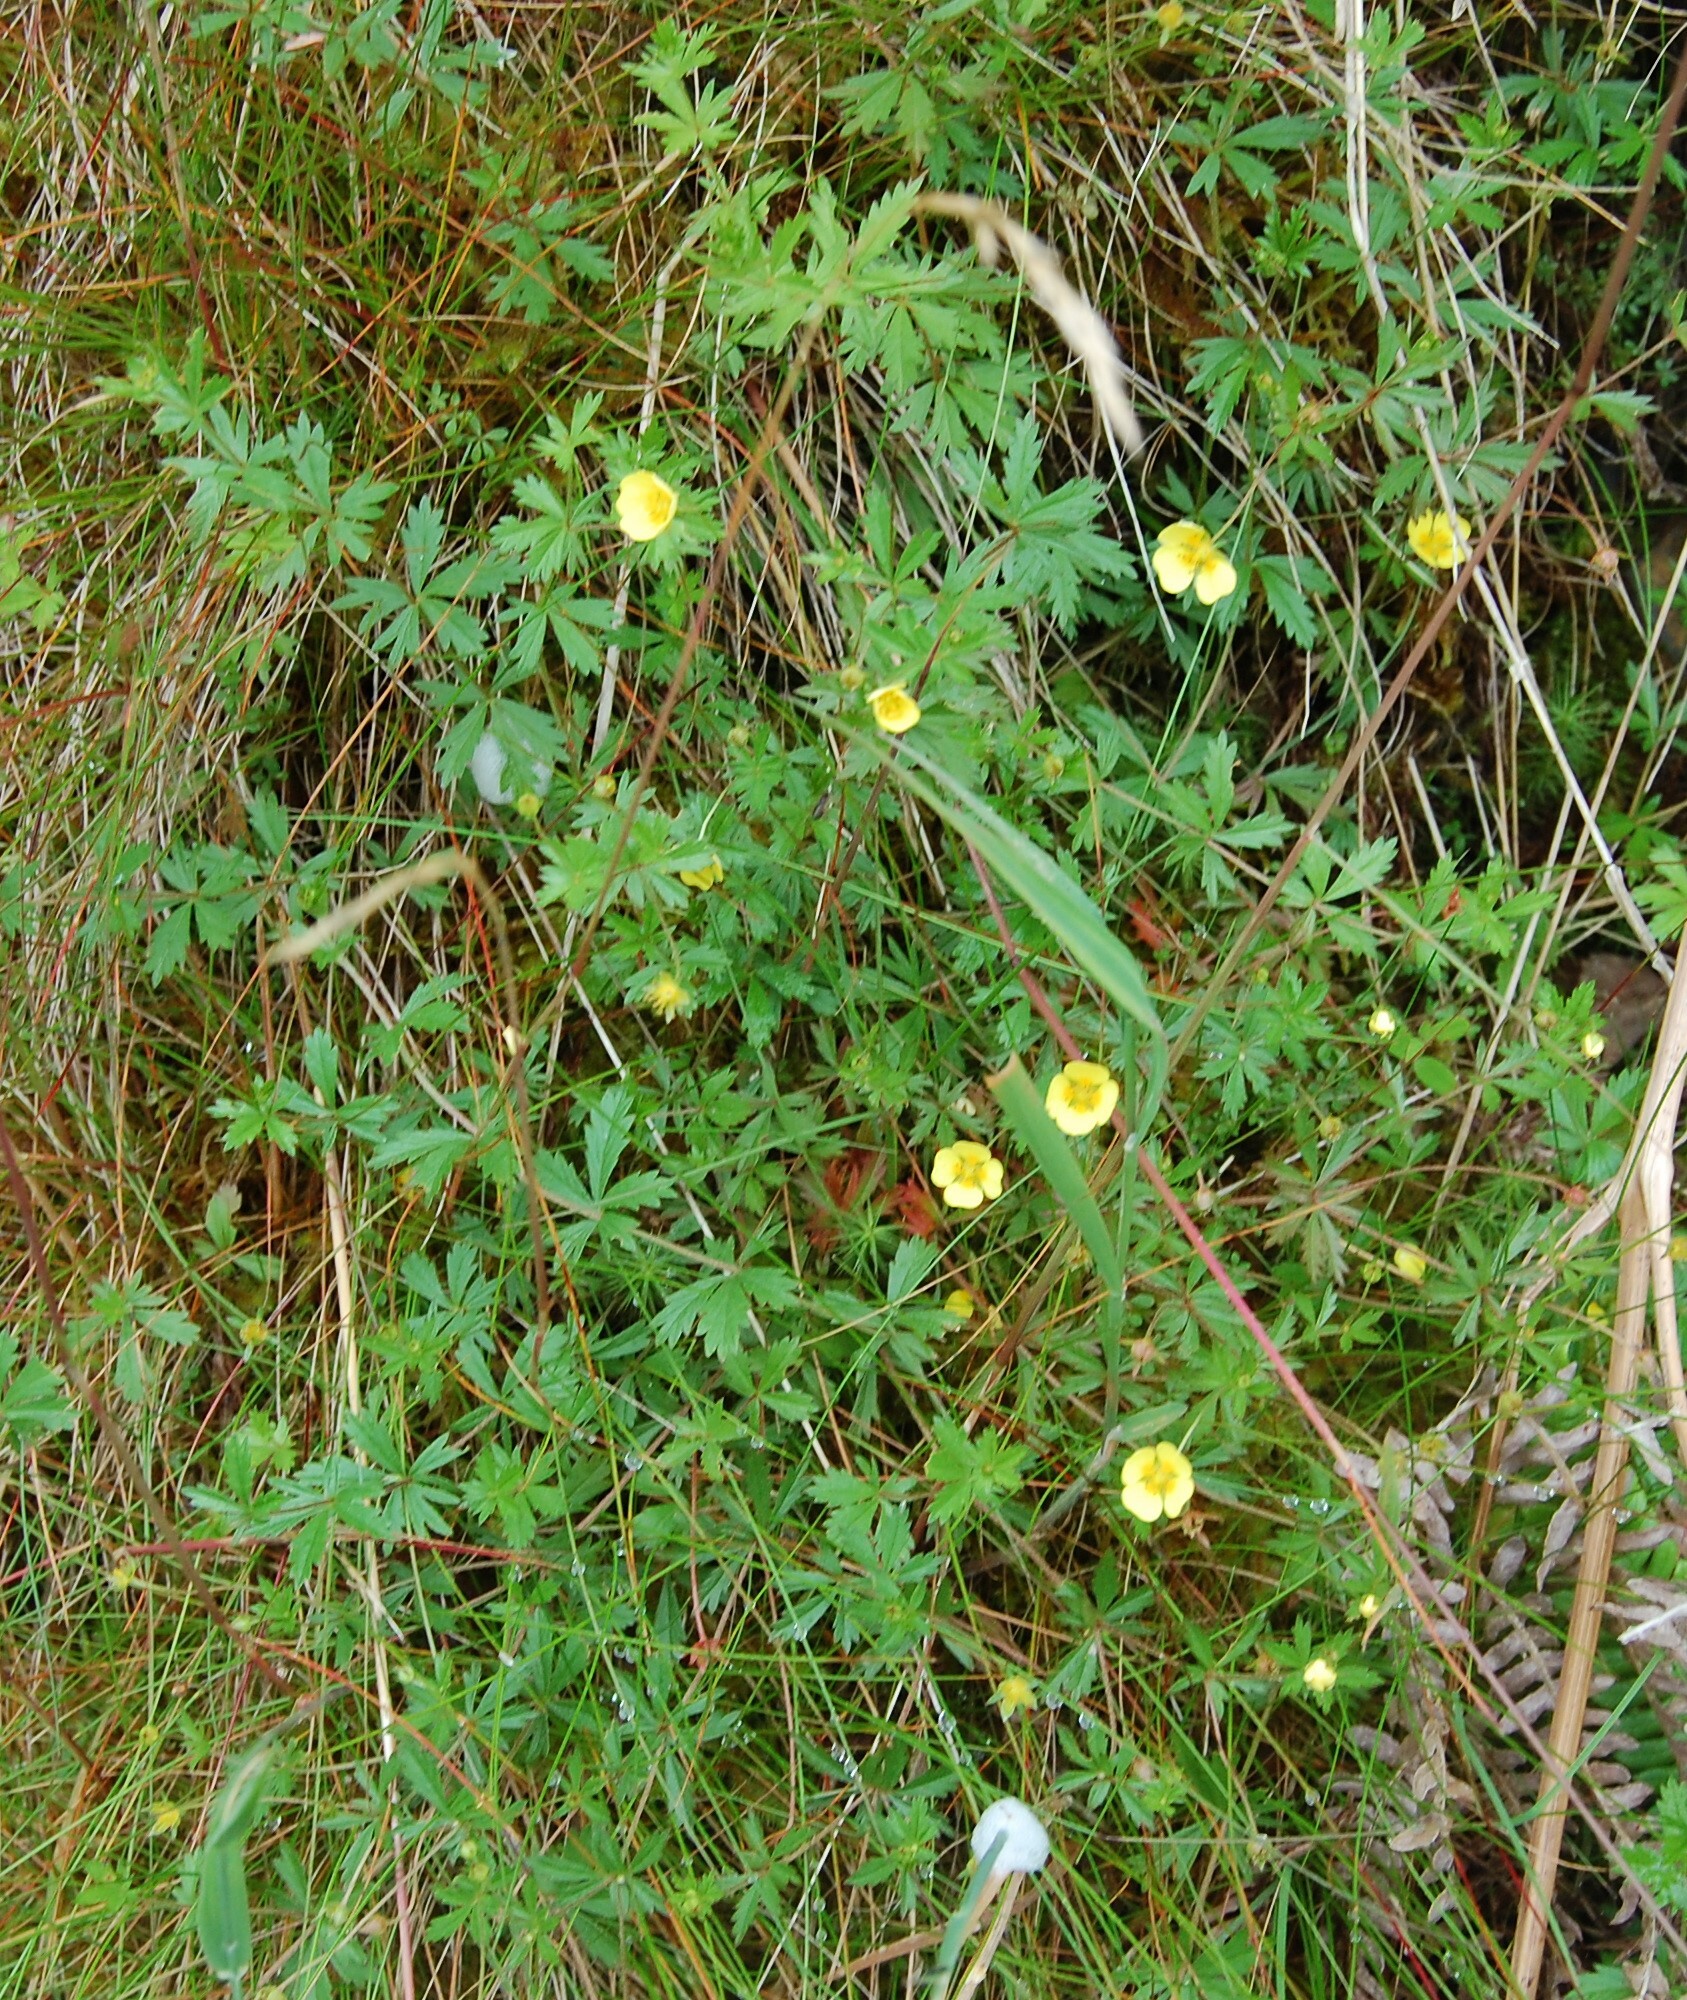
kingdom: Plantae
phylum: Tracheophyta
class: Magnoliopsida
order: Rosales
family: Rosaceae
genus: Potentilla
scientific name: Potentilla erecta
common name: Tormentil
